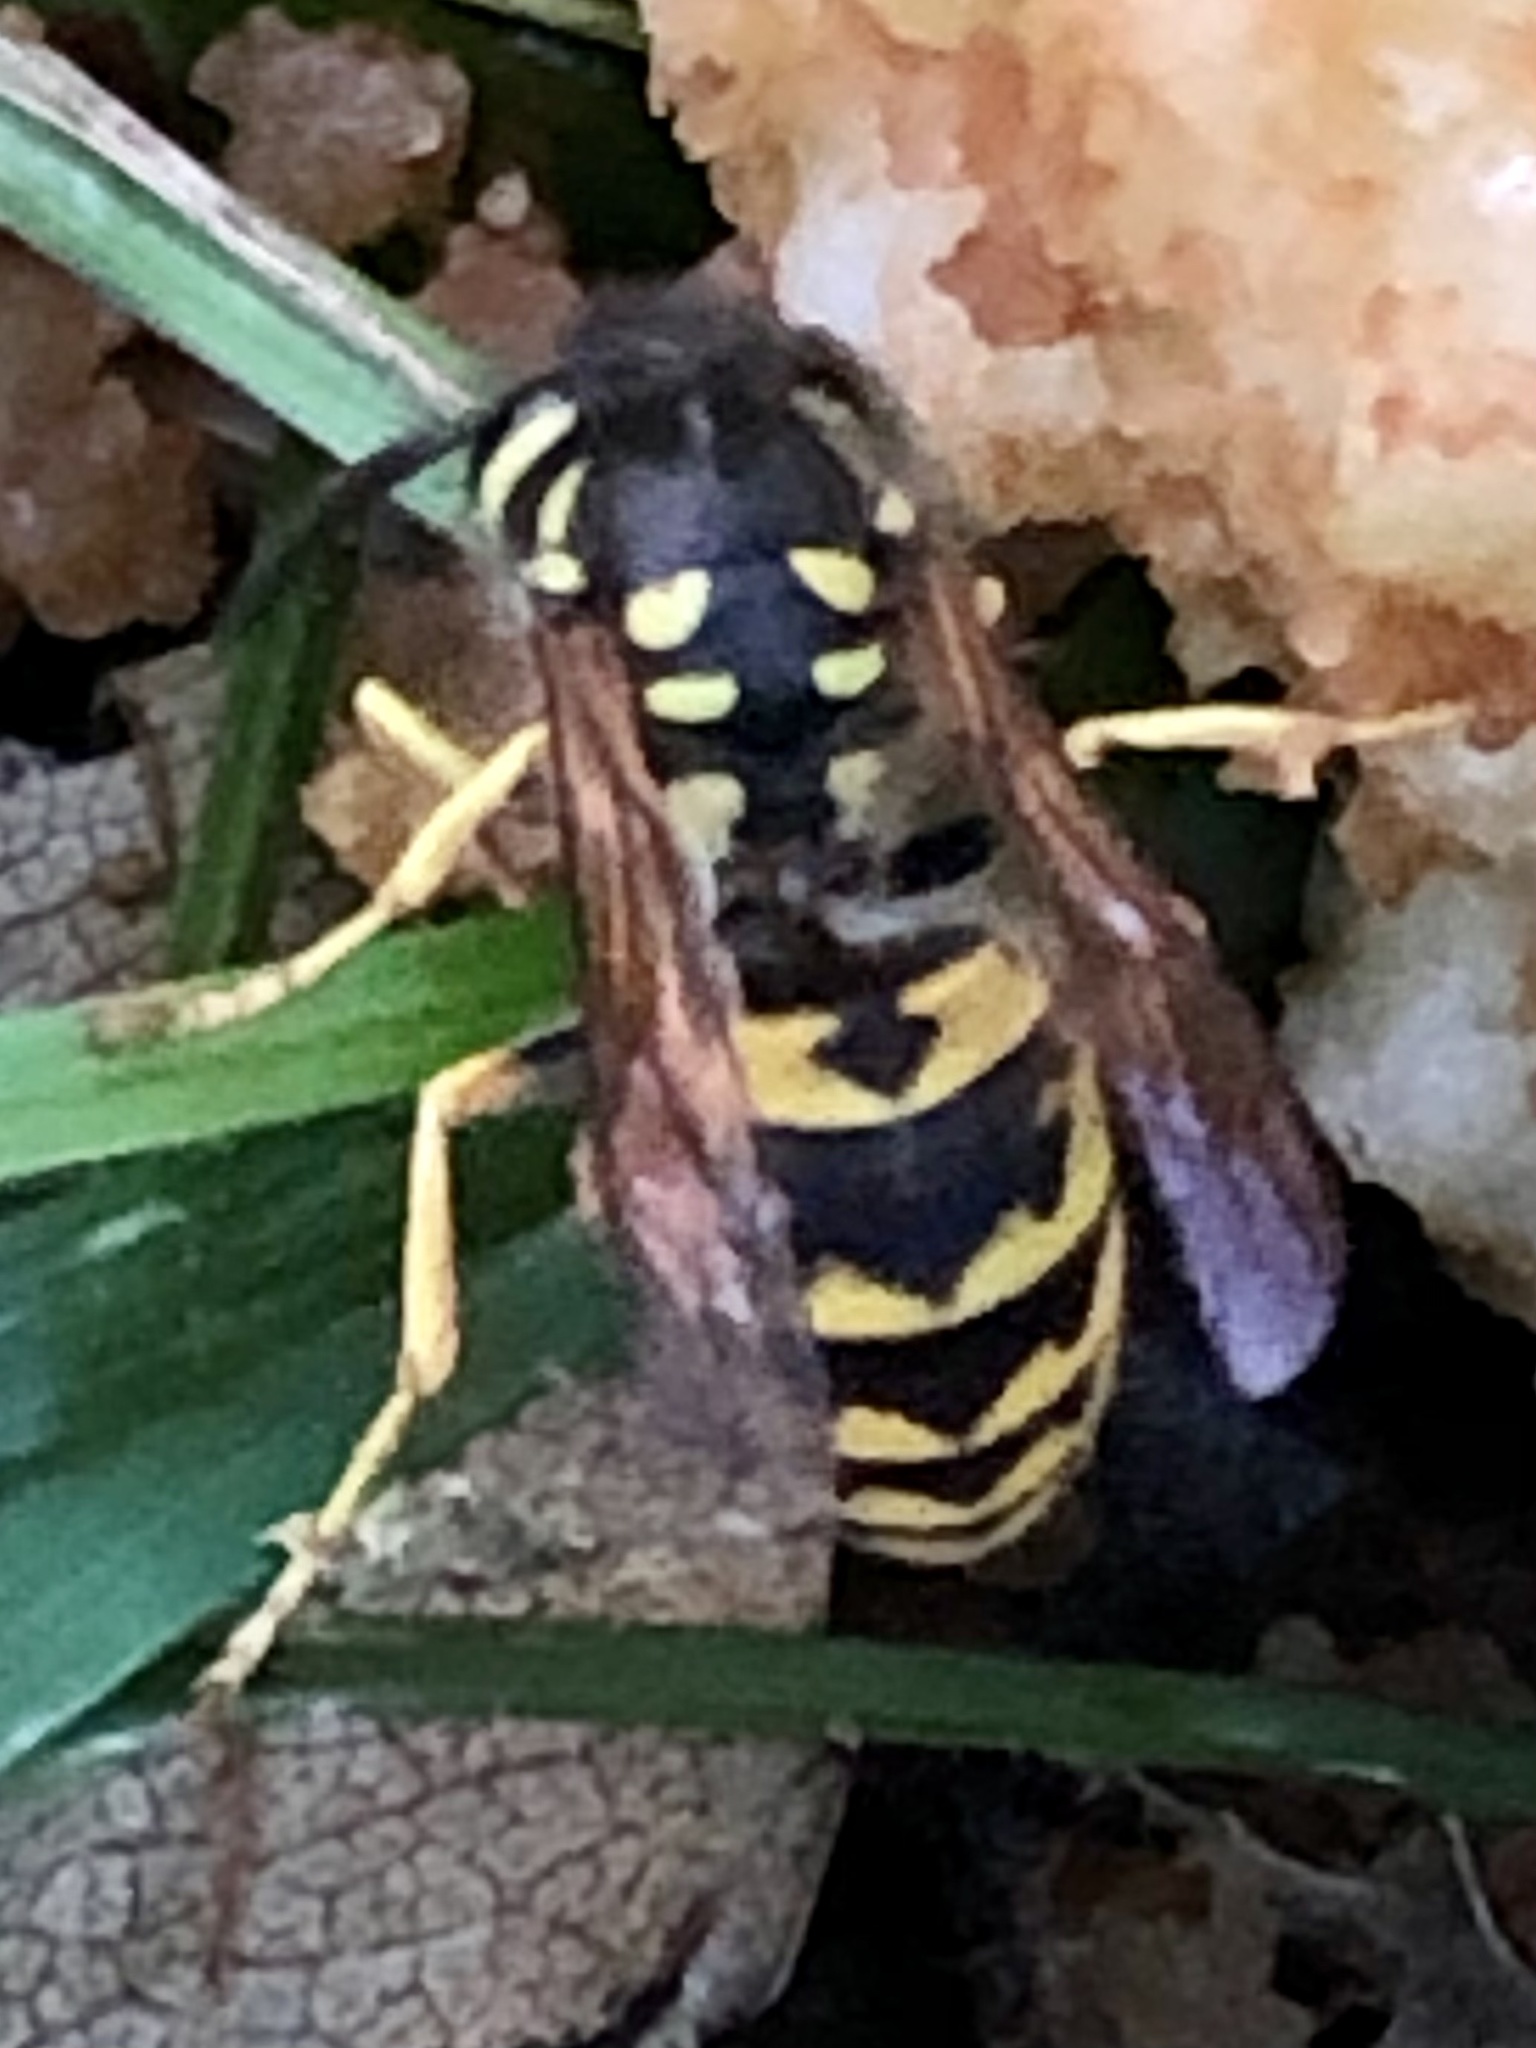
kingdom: Animalia
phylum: Arthropoda
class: Insecta
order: Hymenoptera
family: Vespidae
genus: Vespula
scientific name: Vespula germanica
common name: German wasp
